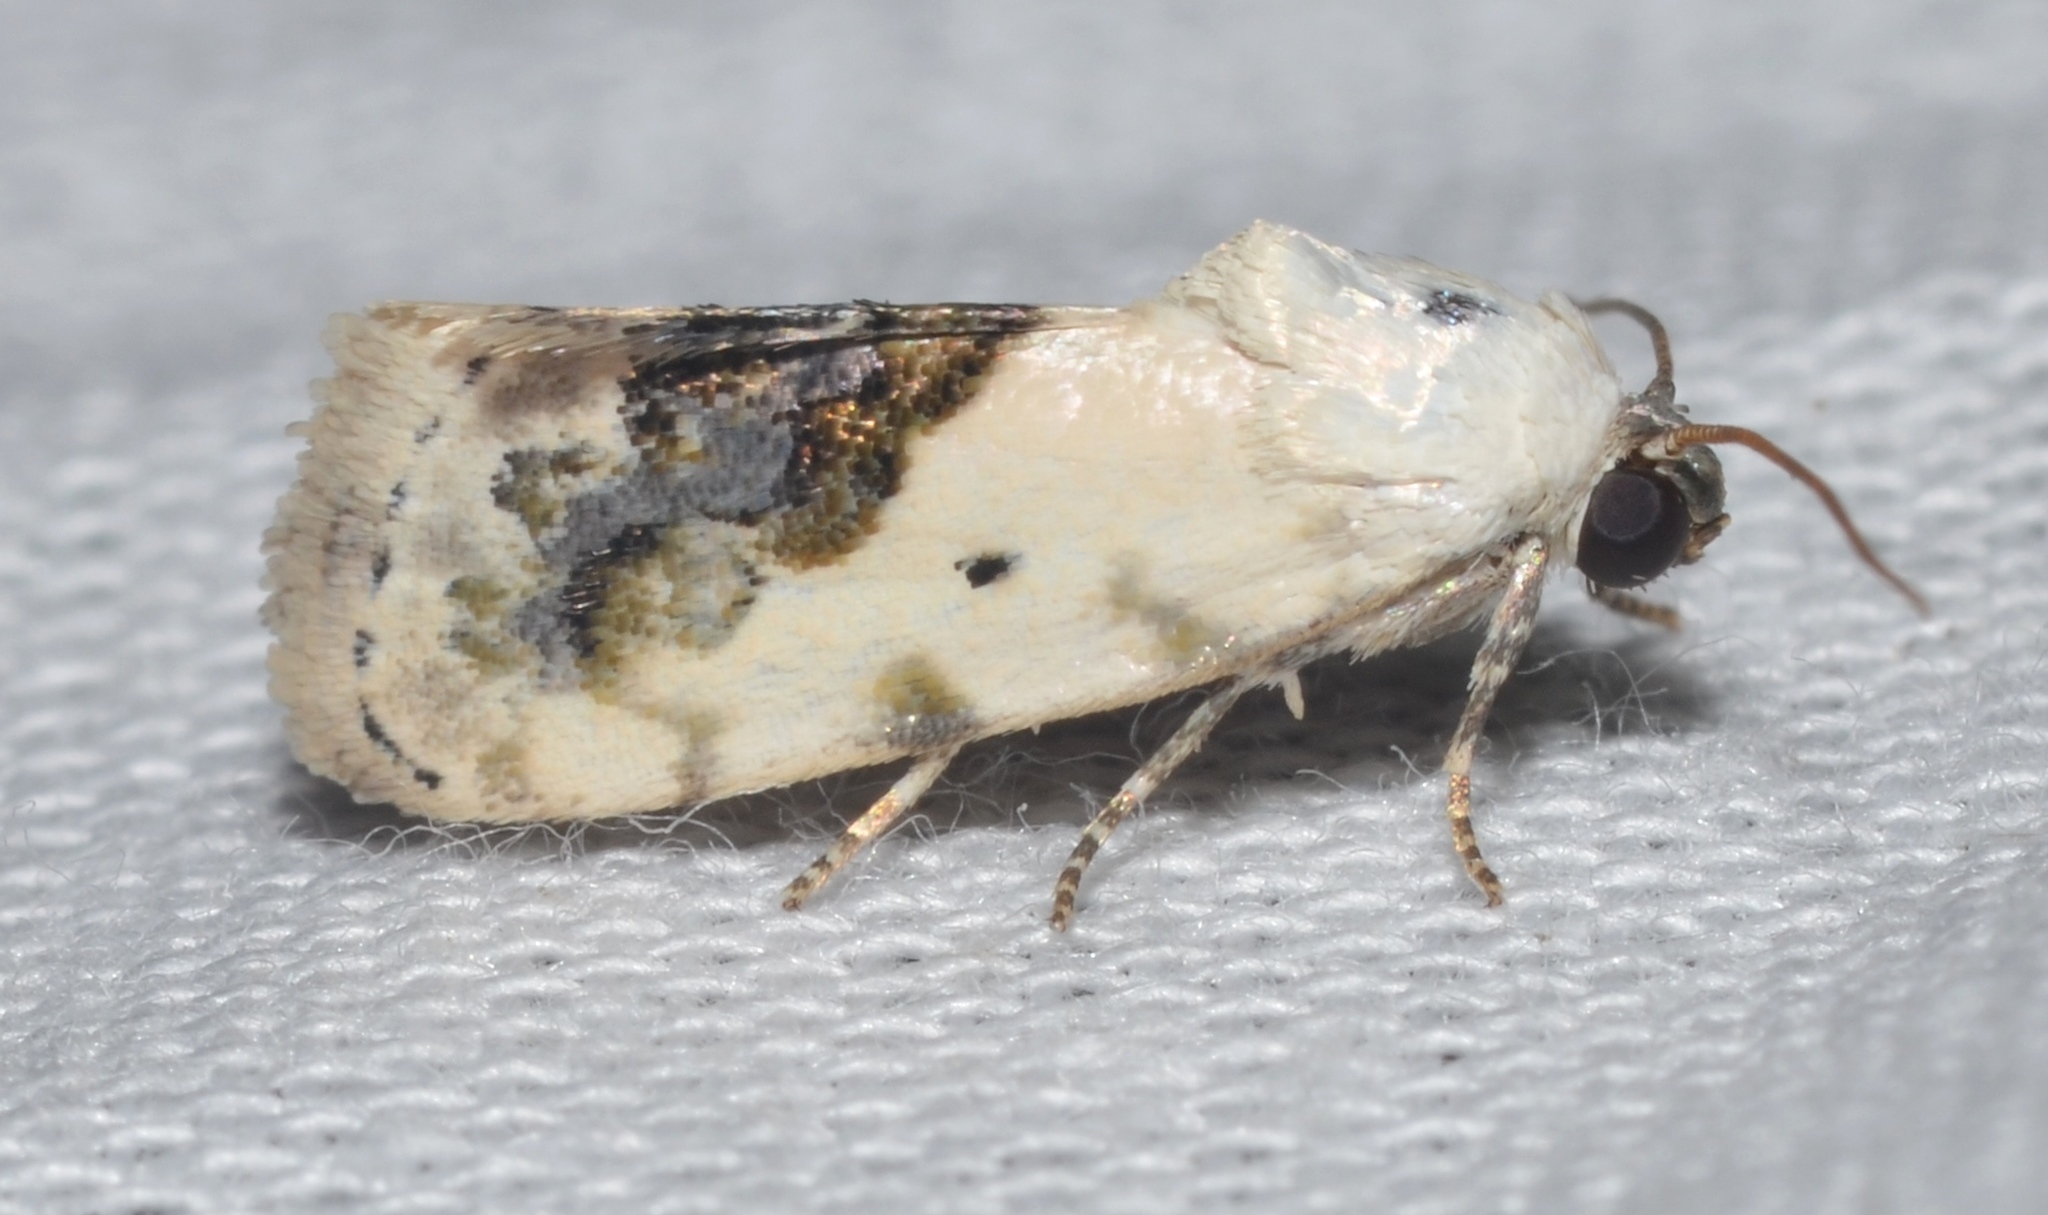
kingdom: Animalia
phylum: Arthropoda
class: Insecta
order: Lepidoptera
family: Noctuidae
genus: Acontia
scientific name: Acontia erastrioides
